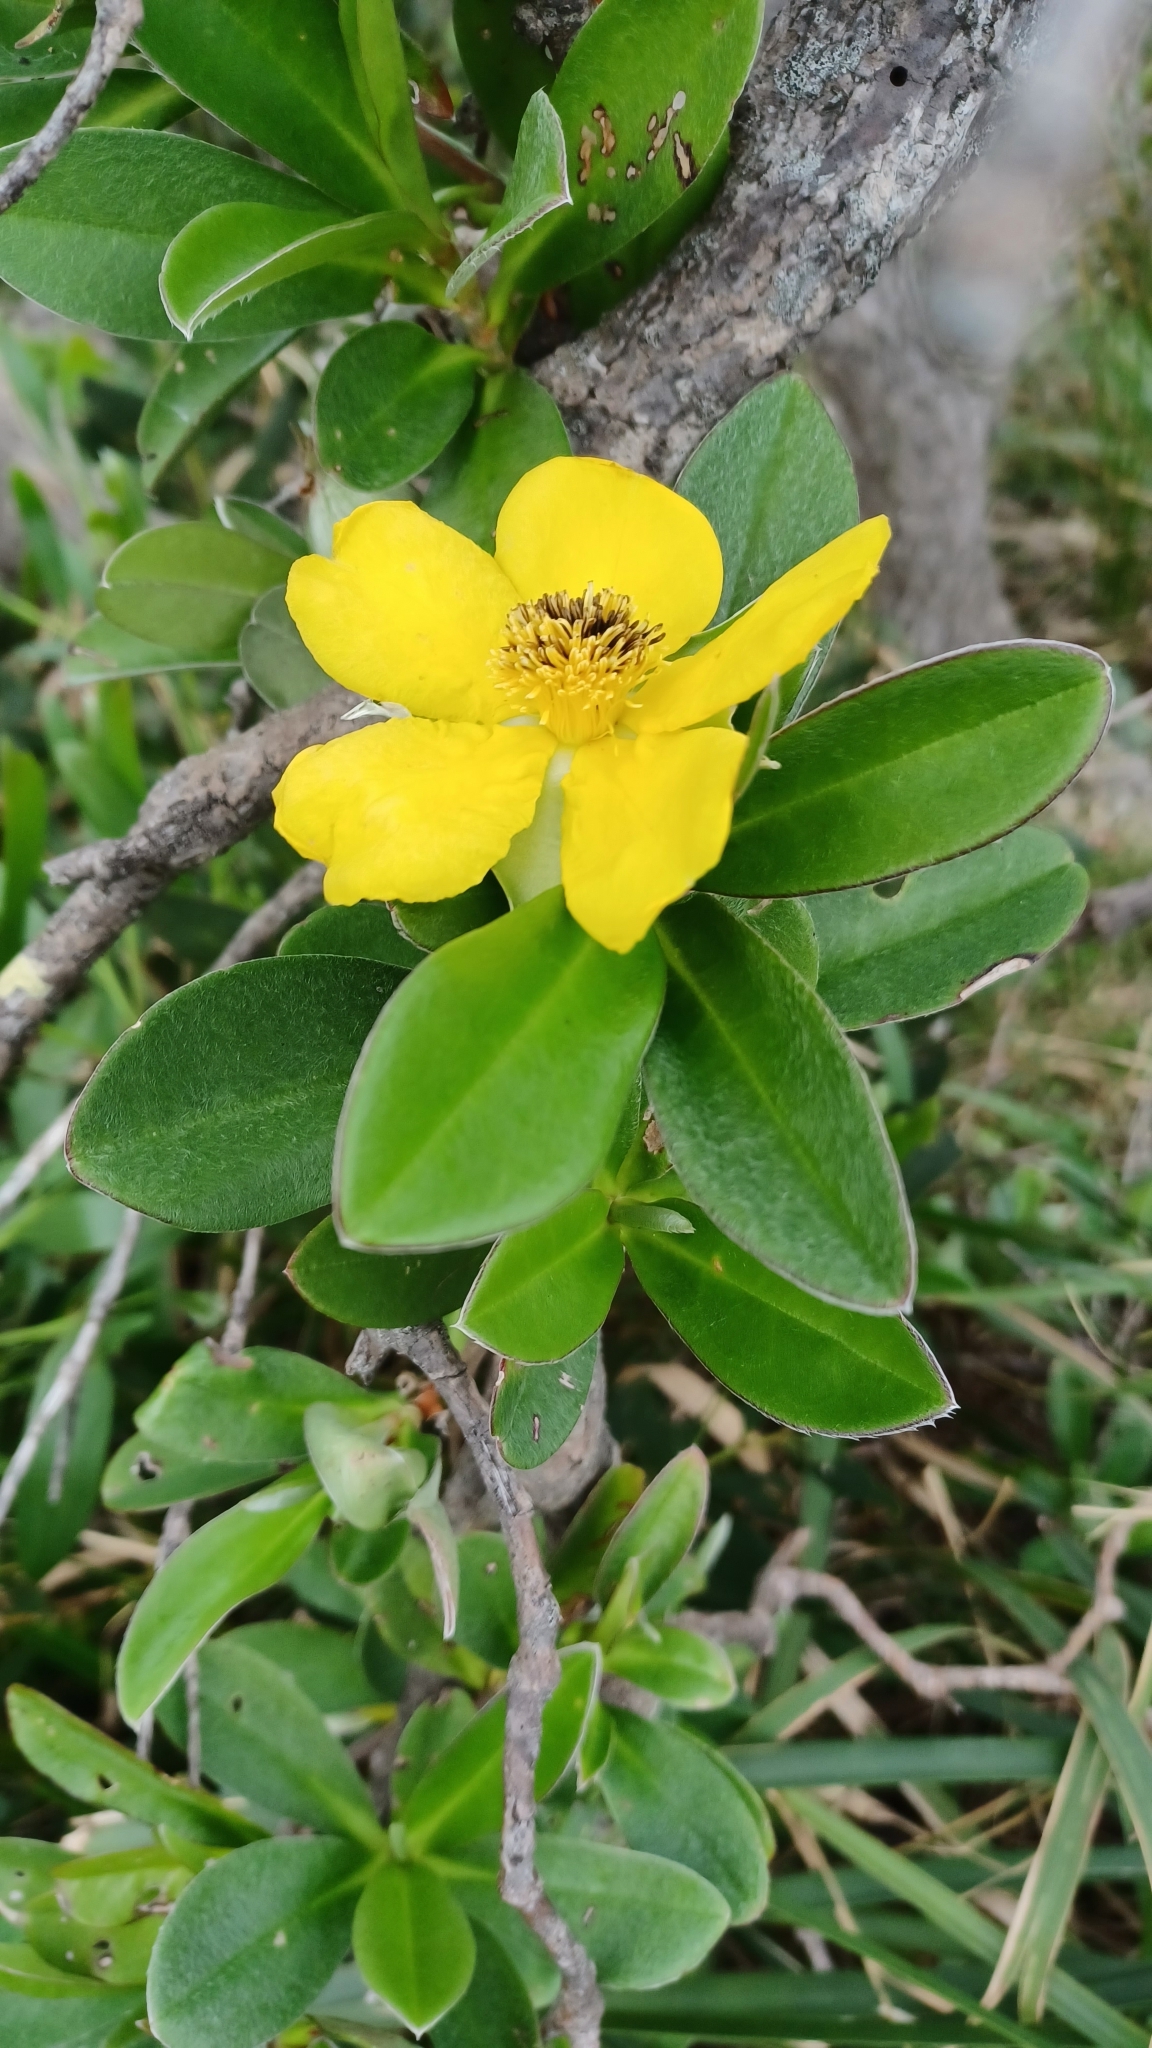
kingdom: Plantae
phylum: Tracheophyta
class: Magnoliopsida
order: Dilleniales
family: Dilleniaceae
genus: Hibbertia
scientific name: Hibbertia scandens
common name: Climbing guinea-flower
